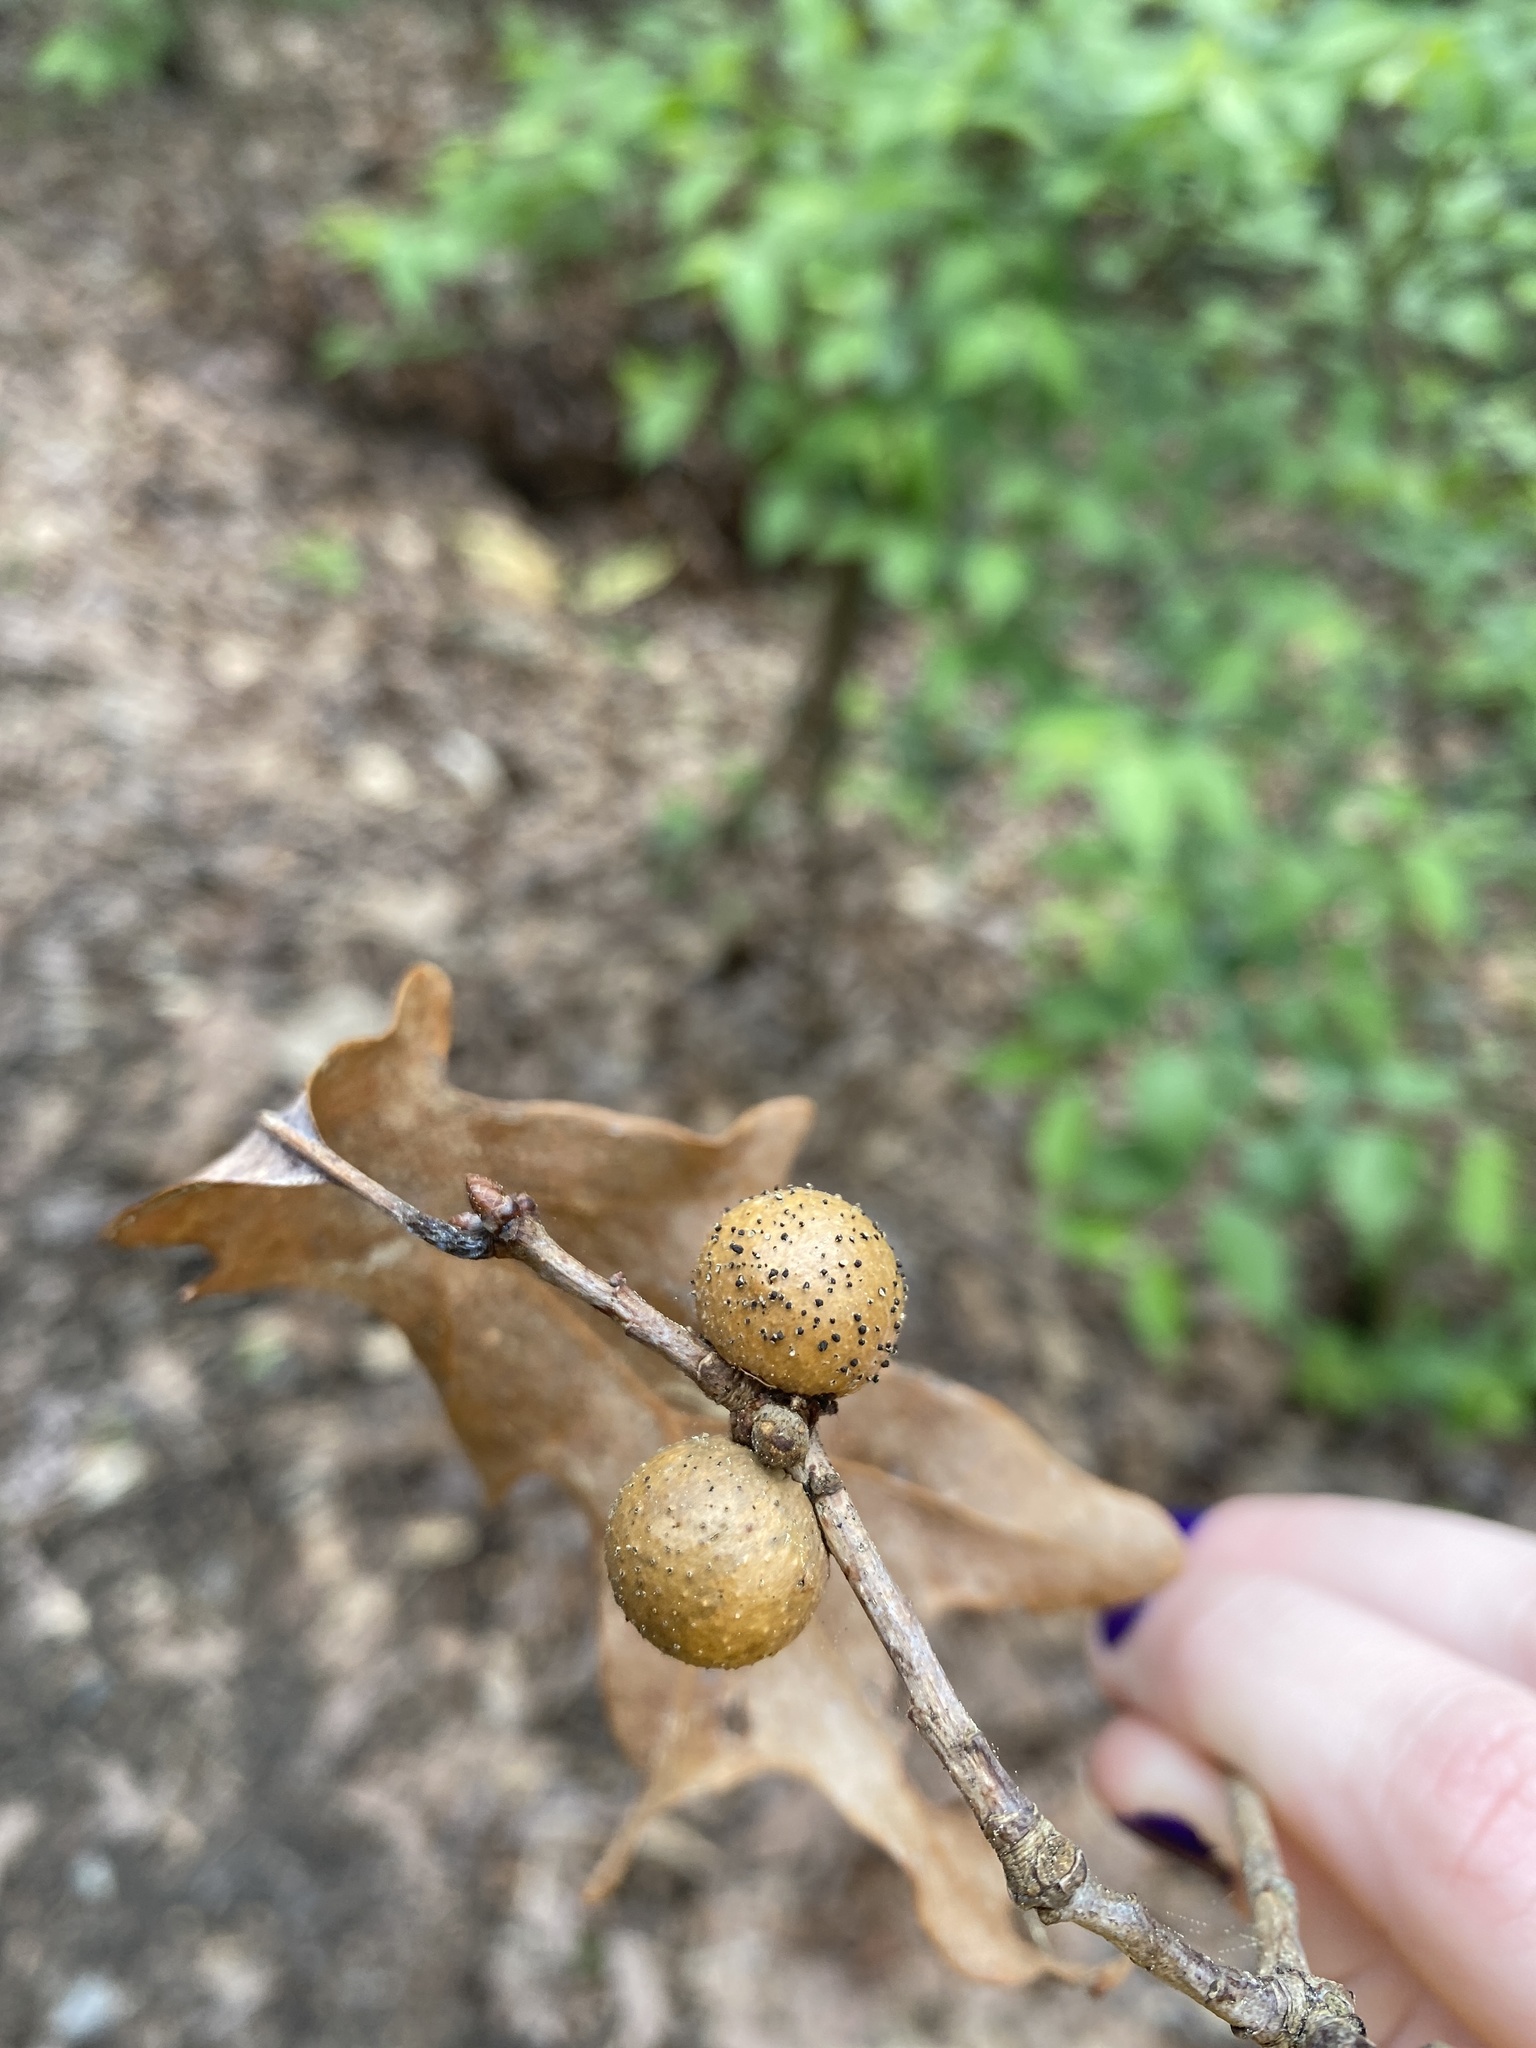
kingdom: Animalia
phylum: Arthropoda
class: Insecta
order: Hymenoptera
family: Cynipidae
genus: Disholcaspis
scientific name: Disholcaspis quercusglobulus
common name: Round bullet gall wasp
